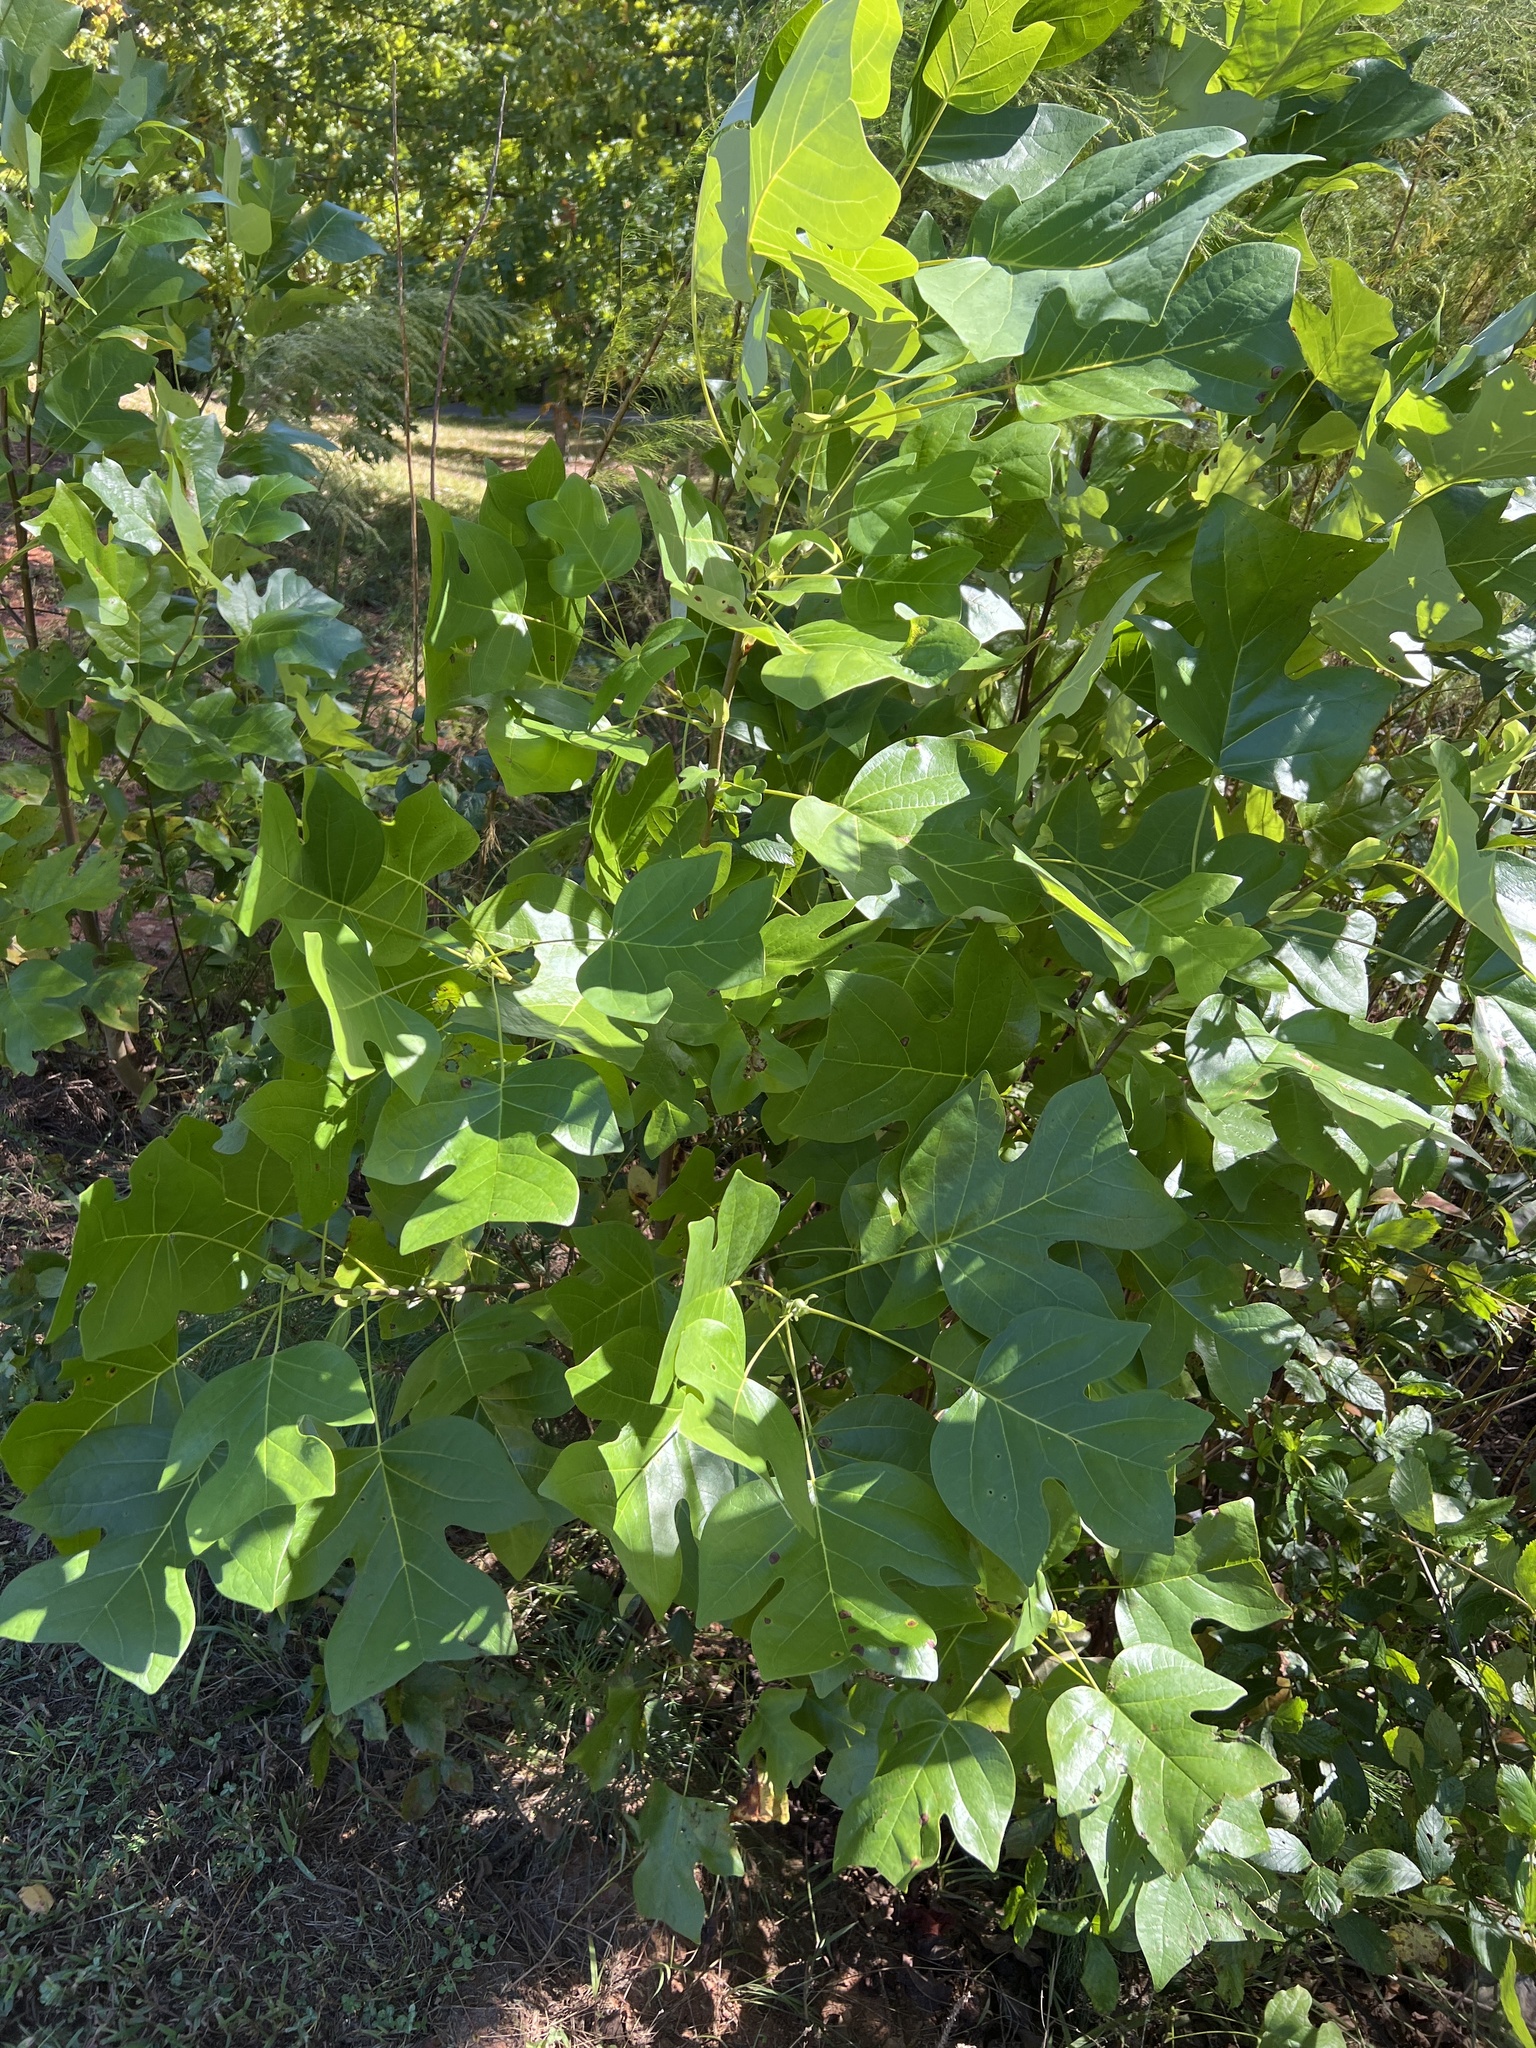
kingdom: Plantae
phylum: Tracheophyta
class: Magnoliopsida
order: Magnoliales
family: Magnoliaceae
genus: Liriodendron
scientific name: Liriodendron tulipifera
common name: Tulip tree
